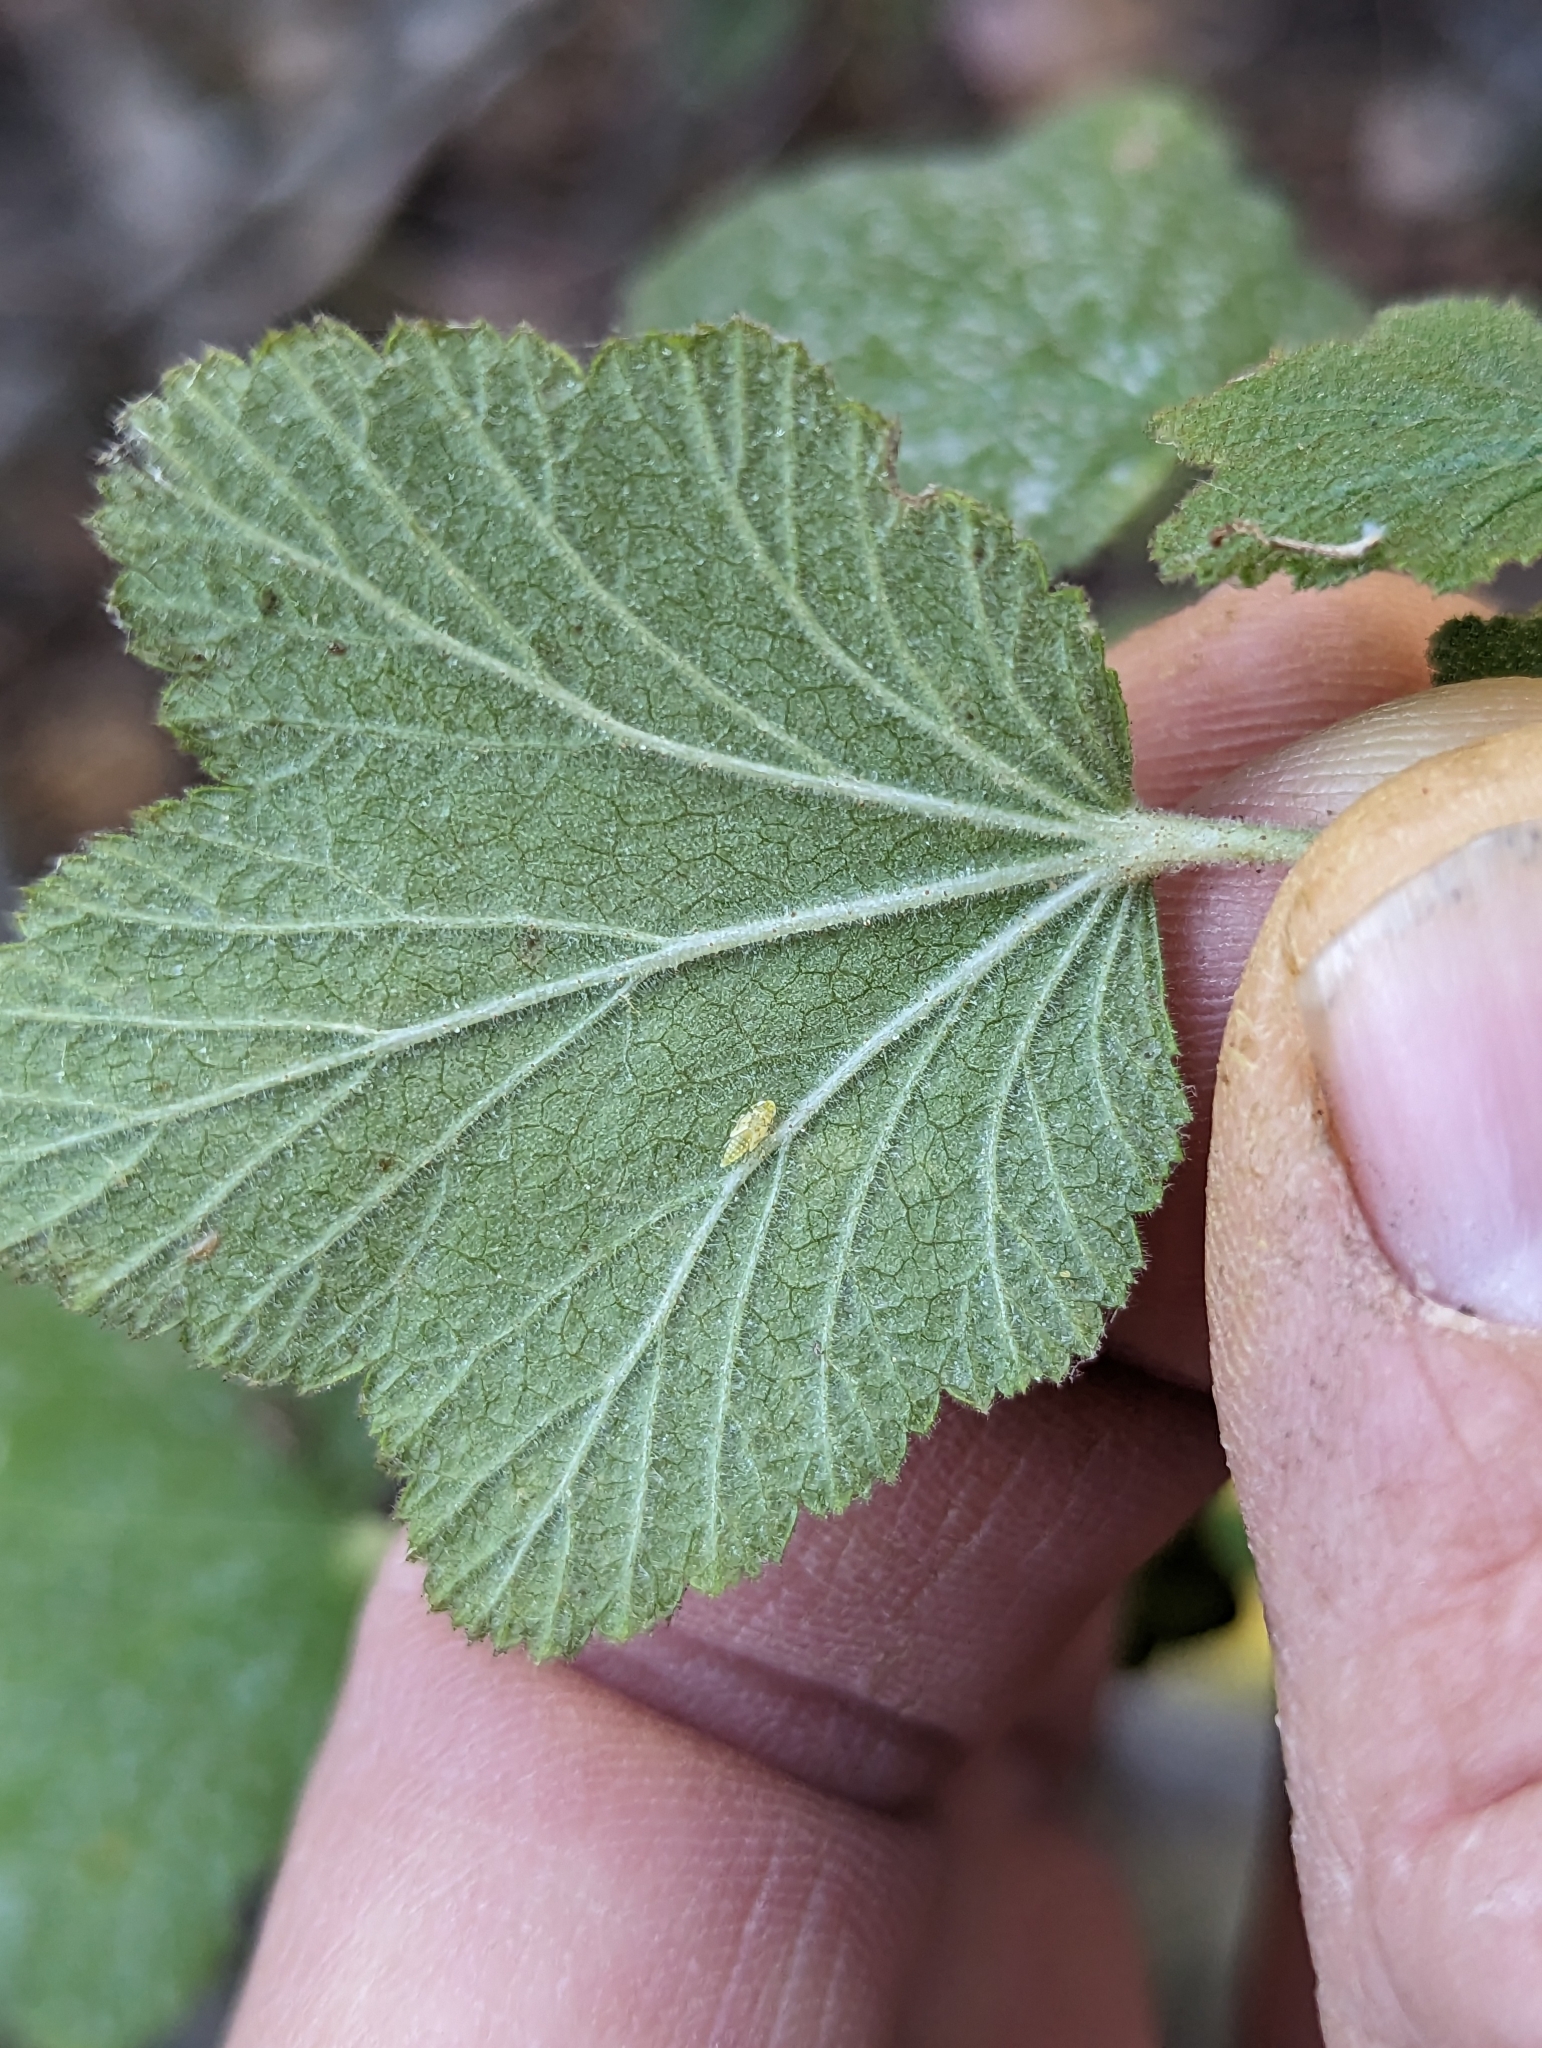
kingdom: Plantae
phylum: Tracheophyta
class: Magnoliopsida
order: Saxifragales
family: Grossulariaceae
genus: Ribes
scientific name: Ribes indecorum
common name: White-flower currant
